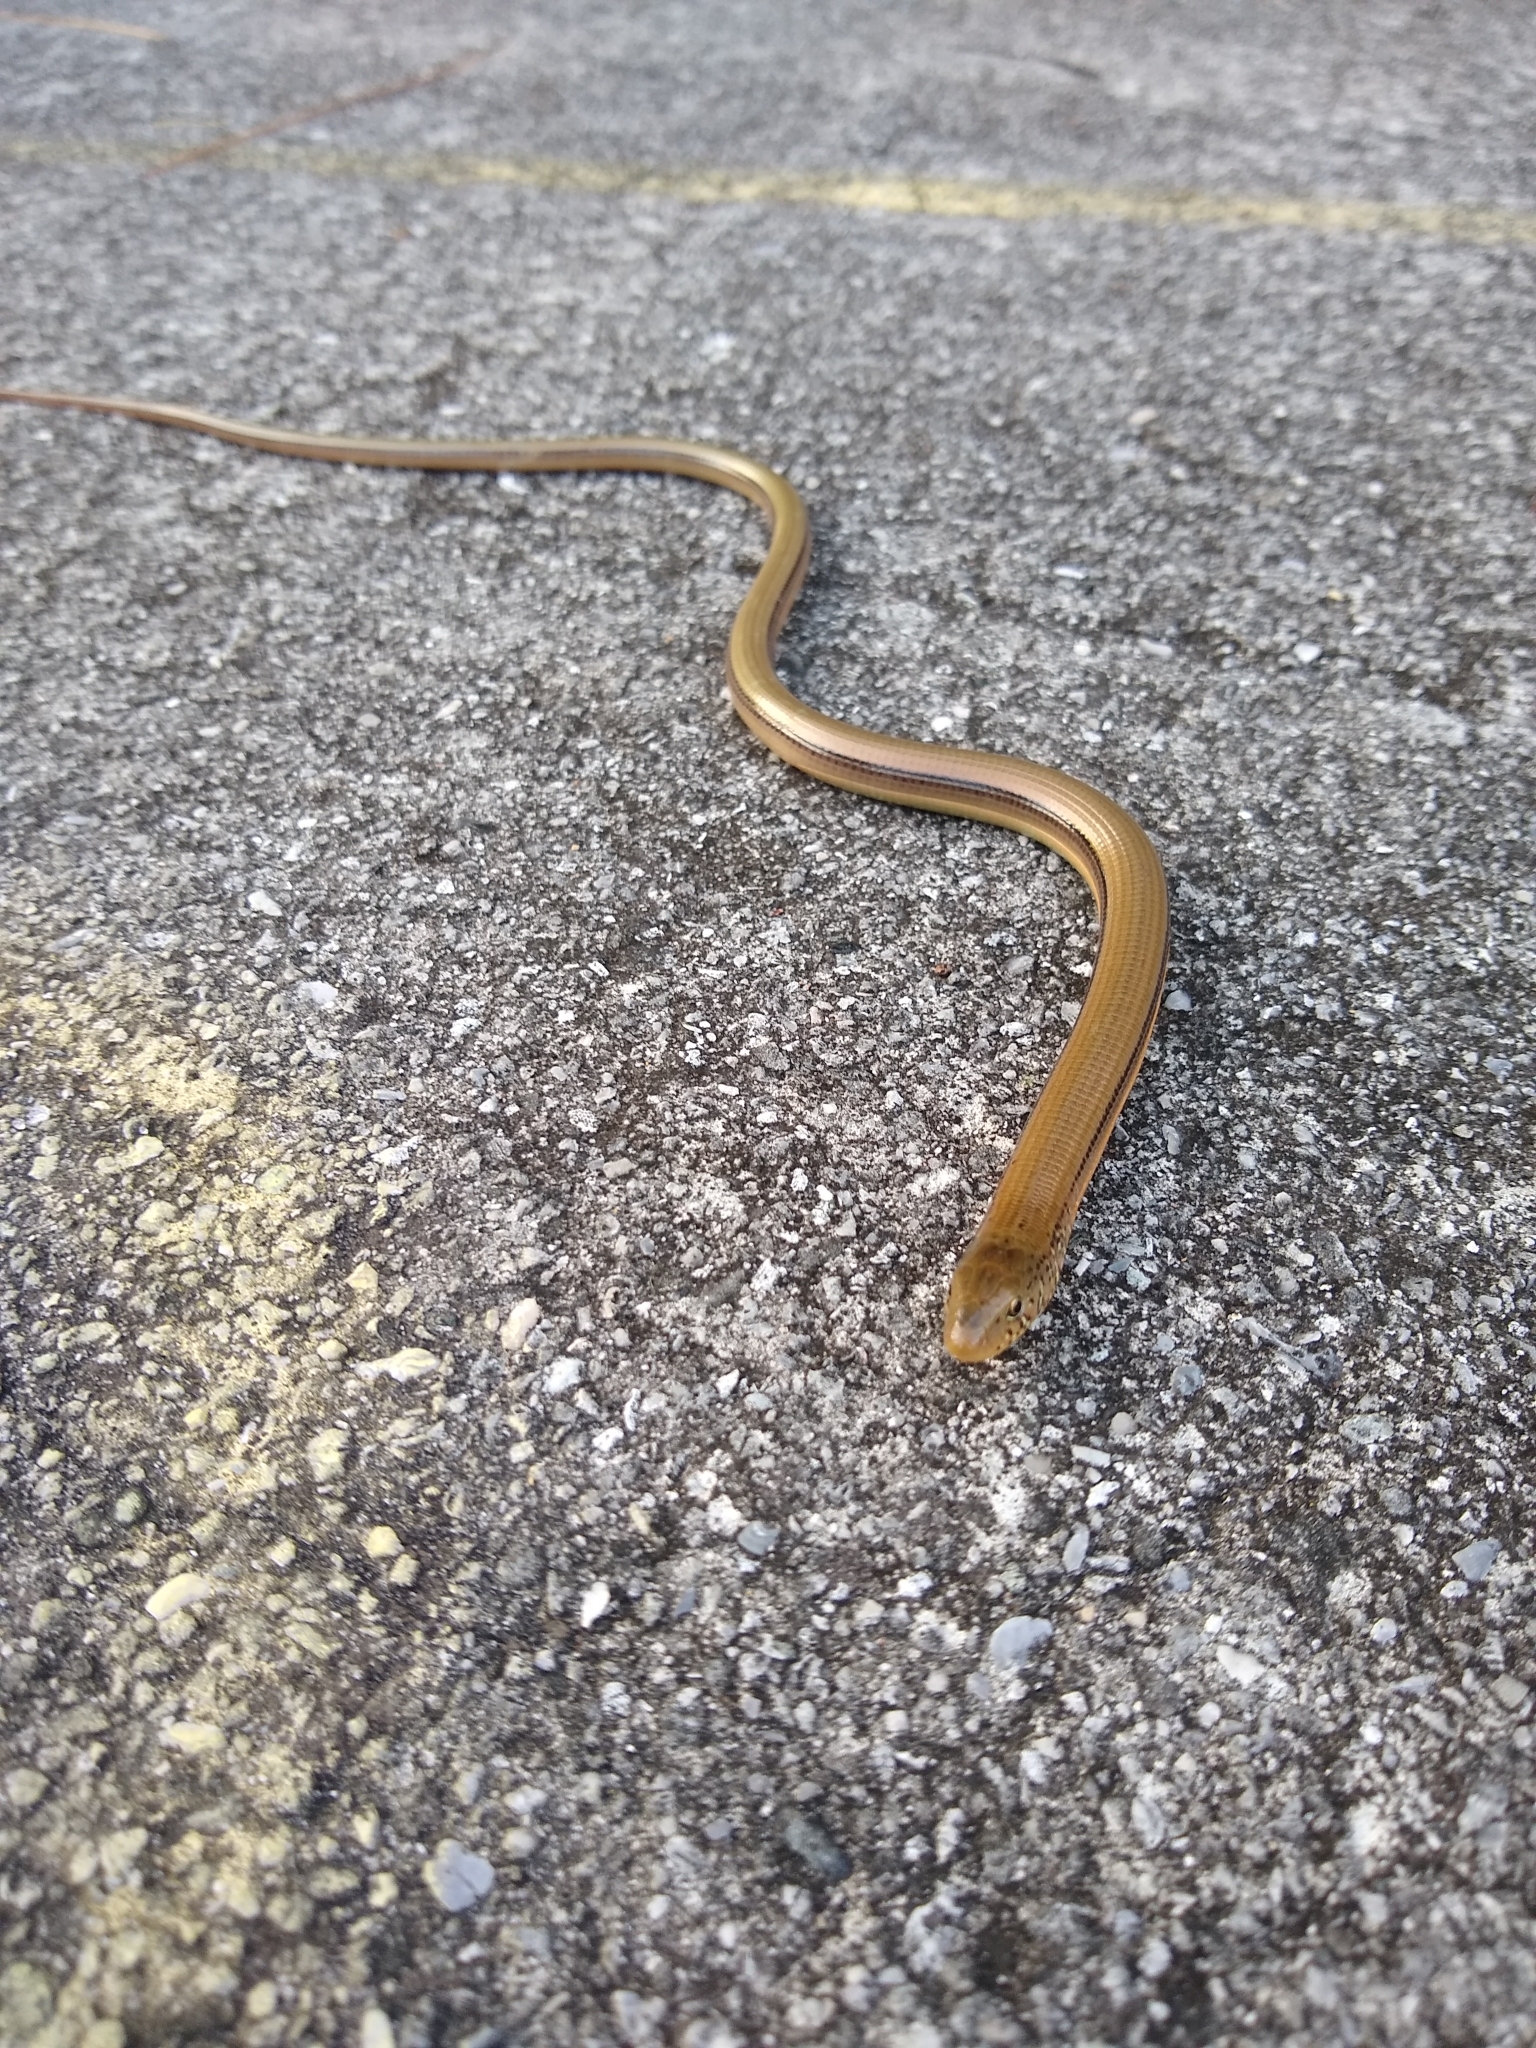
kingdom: Animalia
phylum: Chordata
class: Squamata
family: Anguidae
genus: Ophisaurus
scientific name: Ophisaurus ventralis
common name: Eastern glass lizard
